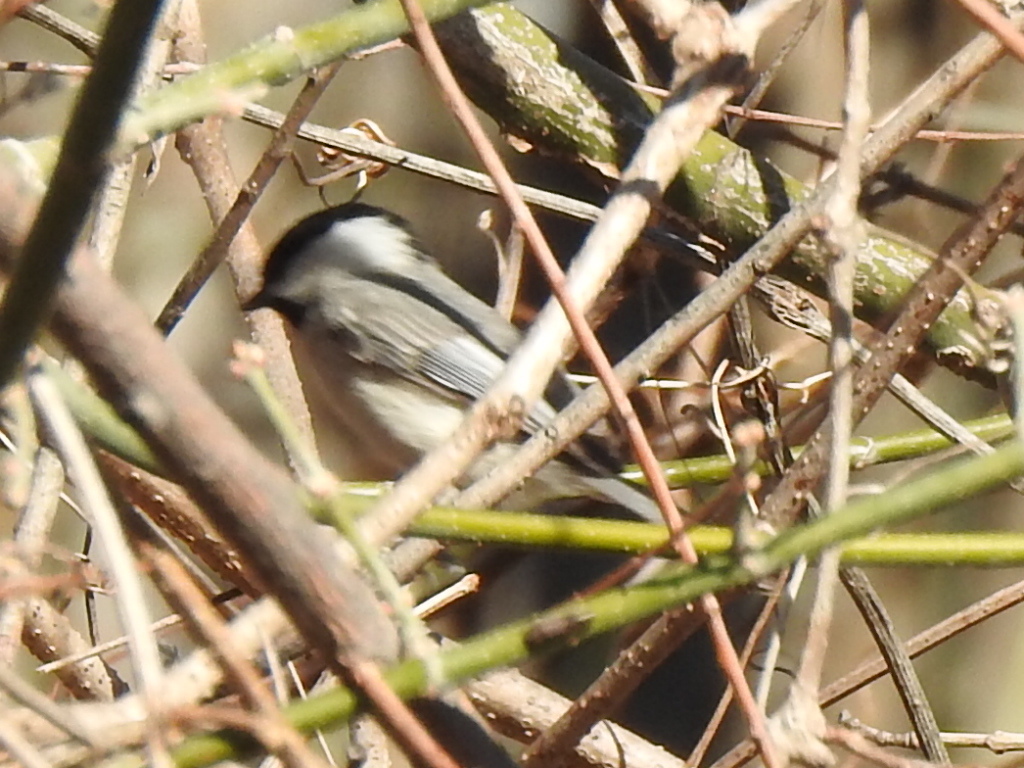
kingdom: Animalia
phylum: Chordata
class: Aves
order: Passeriformes
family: Paridae
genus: Poecile
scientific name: Poecile carolinensis
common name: Carolina chickadee
